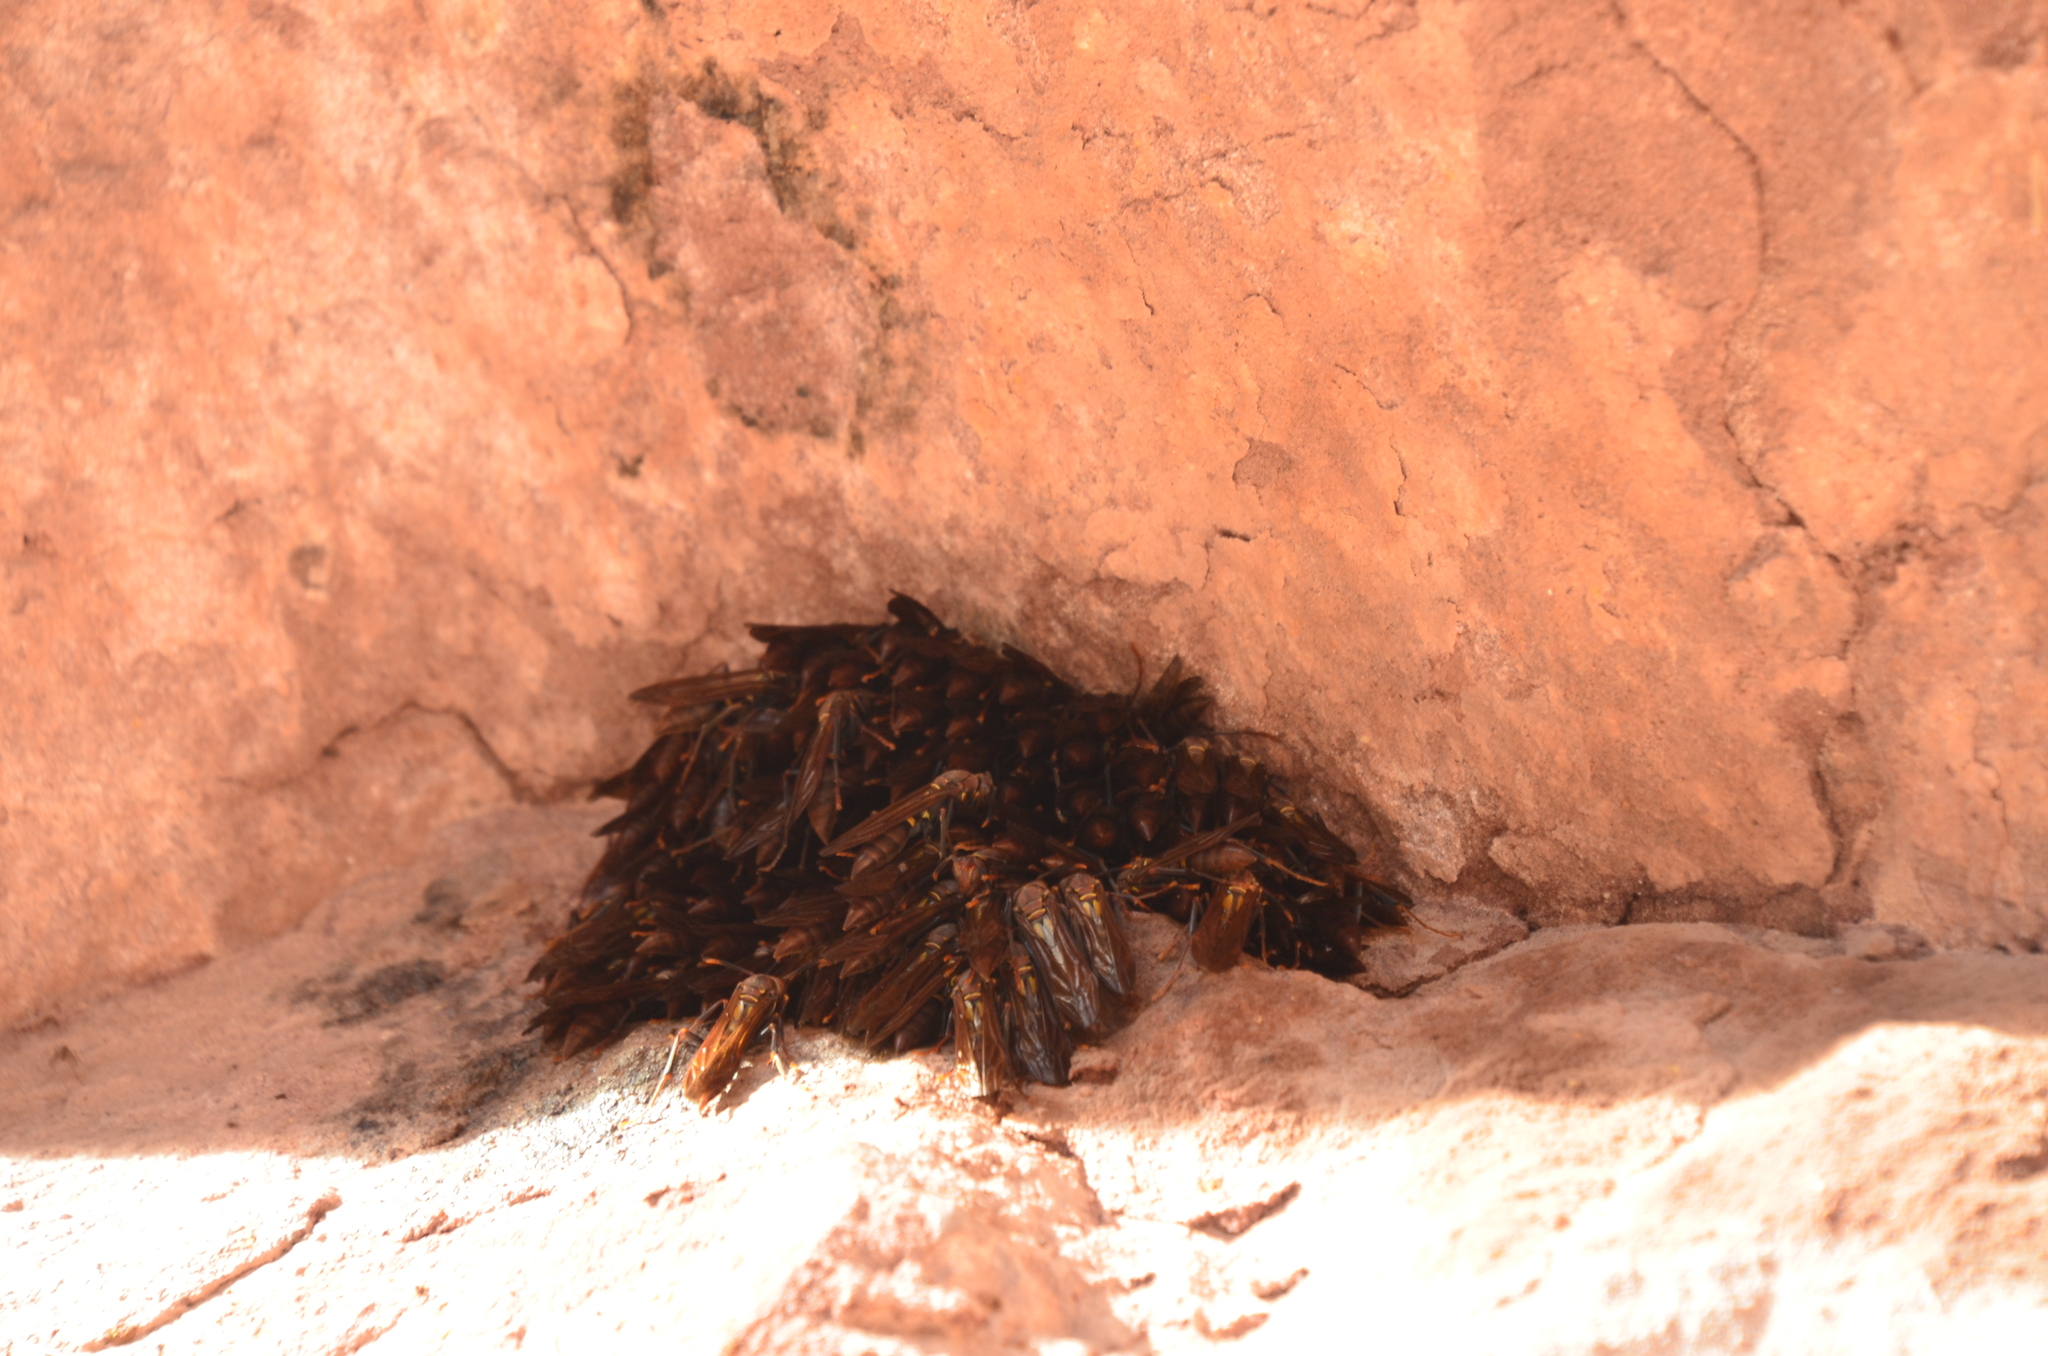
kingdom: Animalia
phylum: Arthropoda
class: Insecta
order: Hymenoptera
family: Pompilidae
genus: Aphanilopterus
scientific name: Aphanilopterus
